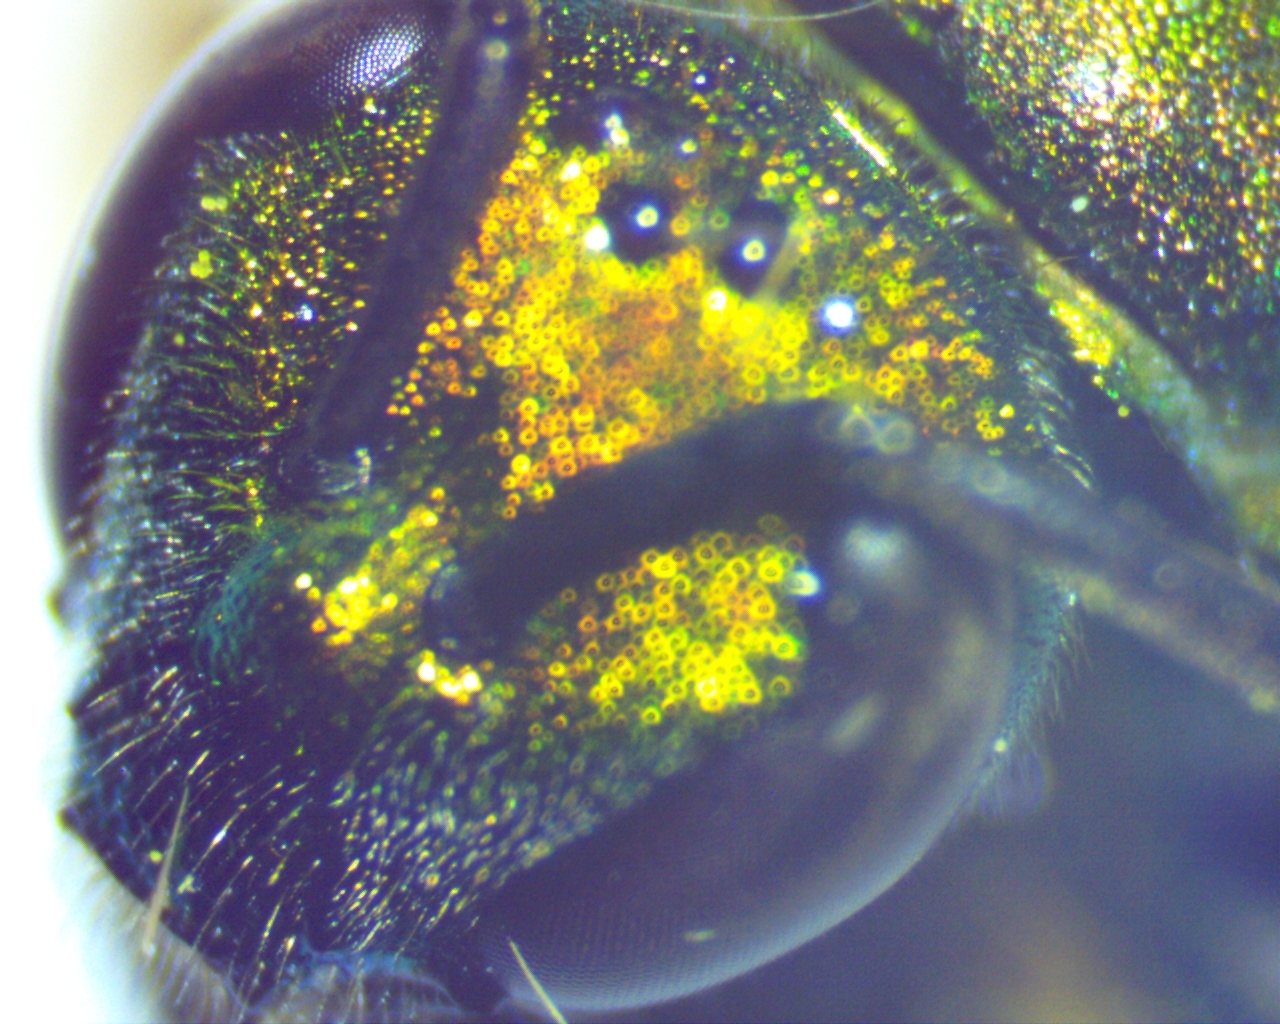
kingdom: Animalia
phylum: Arthropoda
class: Insecta
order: Hymenoptera
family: Halictidae
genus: Augochlora
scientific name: Augochlora pura
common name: Pure green sweat bee
